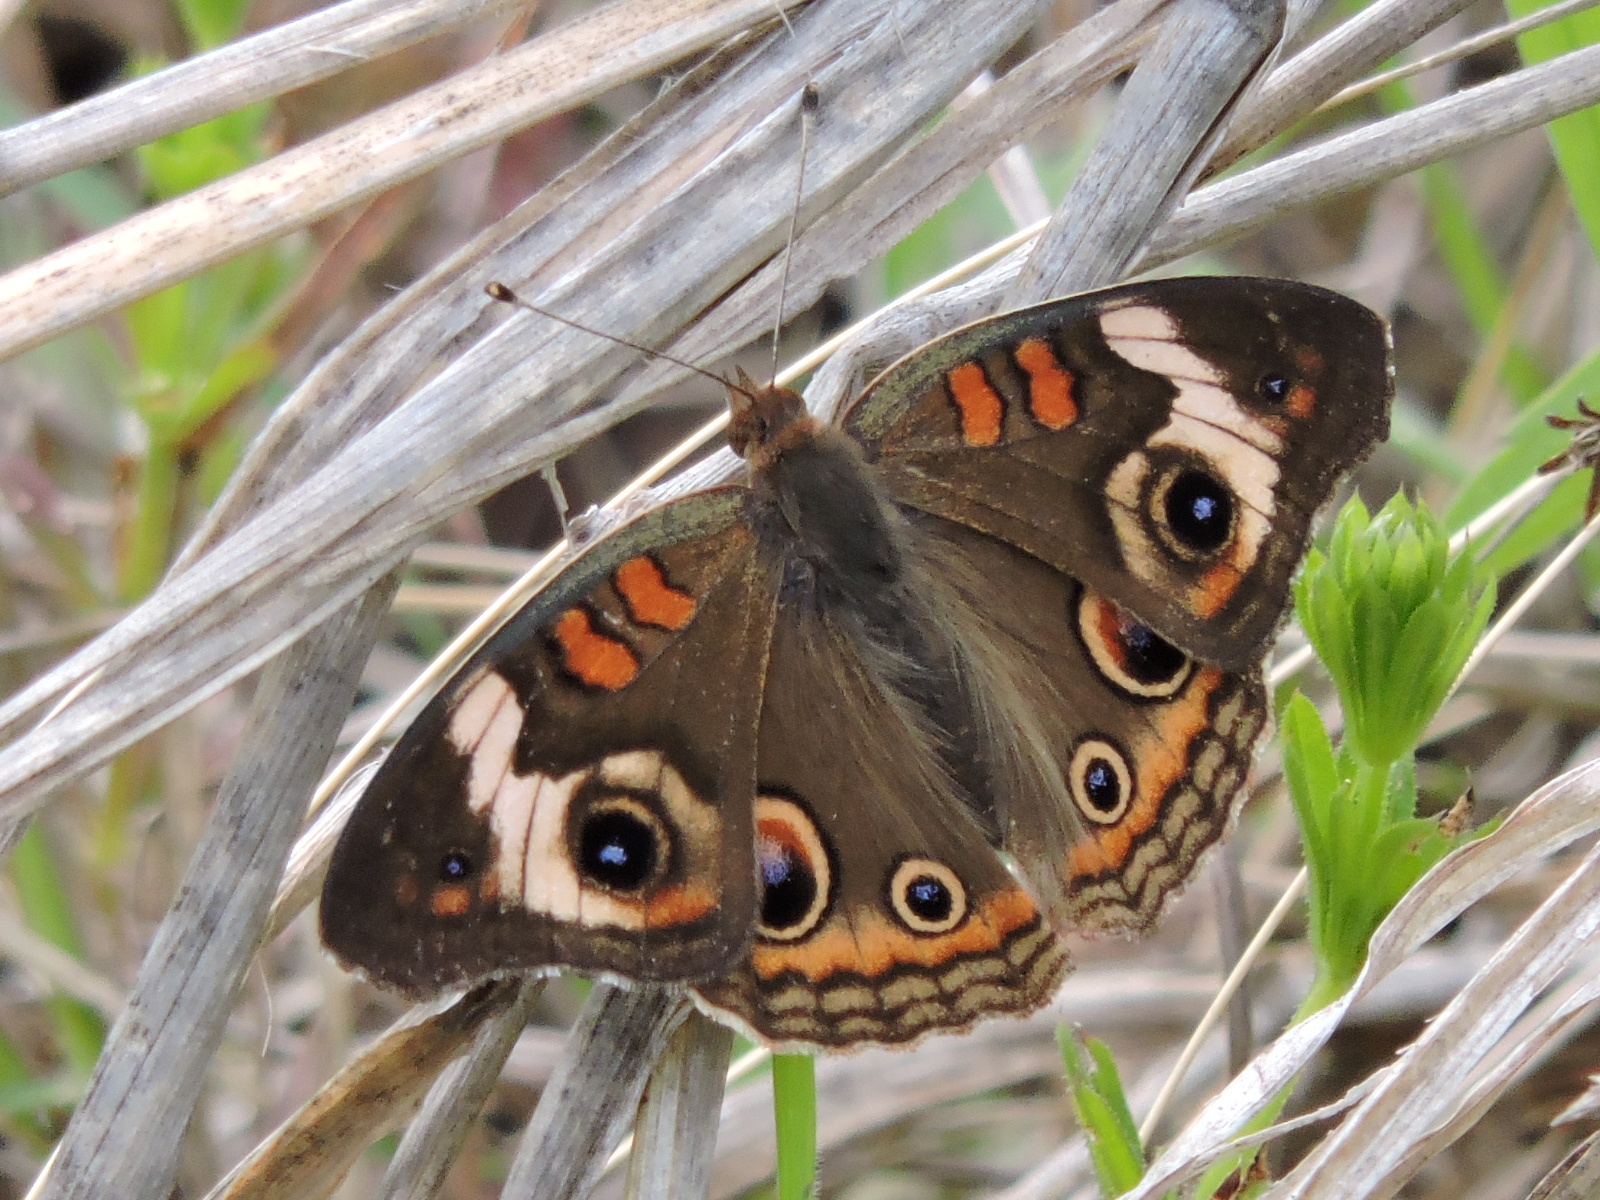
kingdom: Animalia
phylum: Arthropoda
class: Insecta
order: Lepidoptera
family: Nymphalidae
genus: Junonia
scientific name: Junonia coenia
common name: Common buckeye
